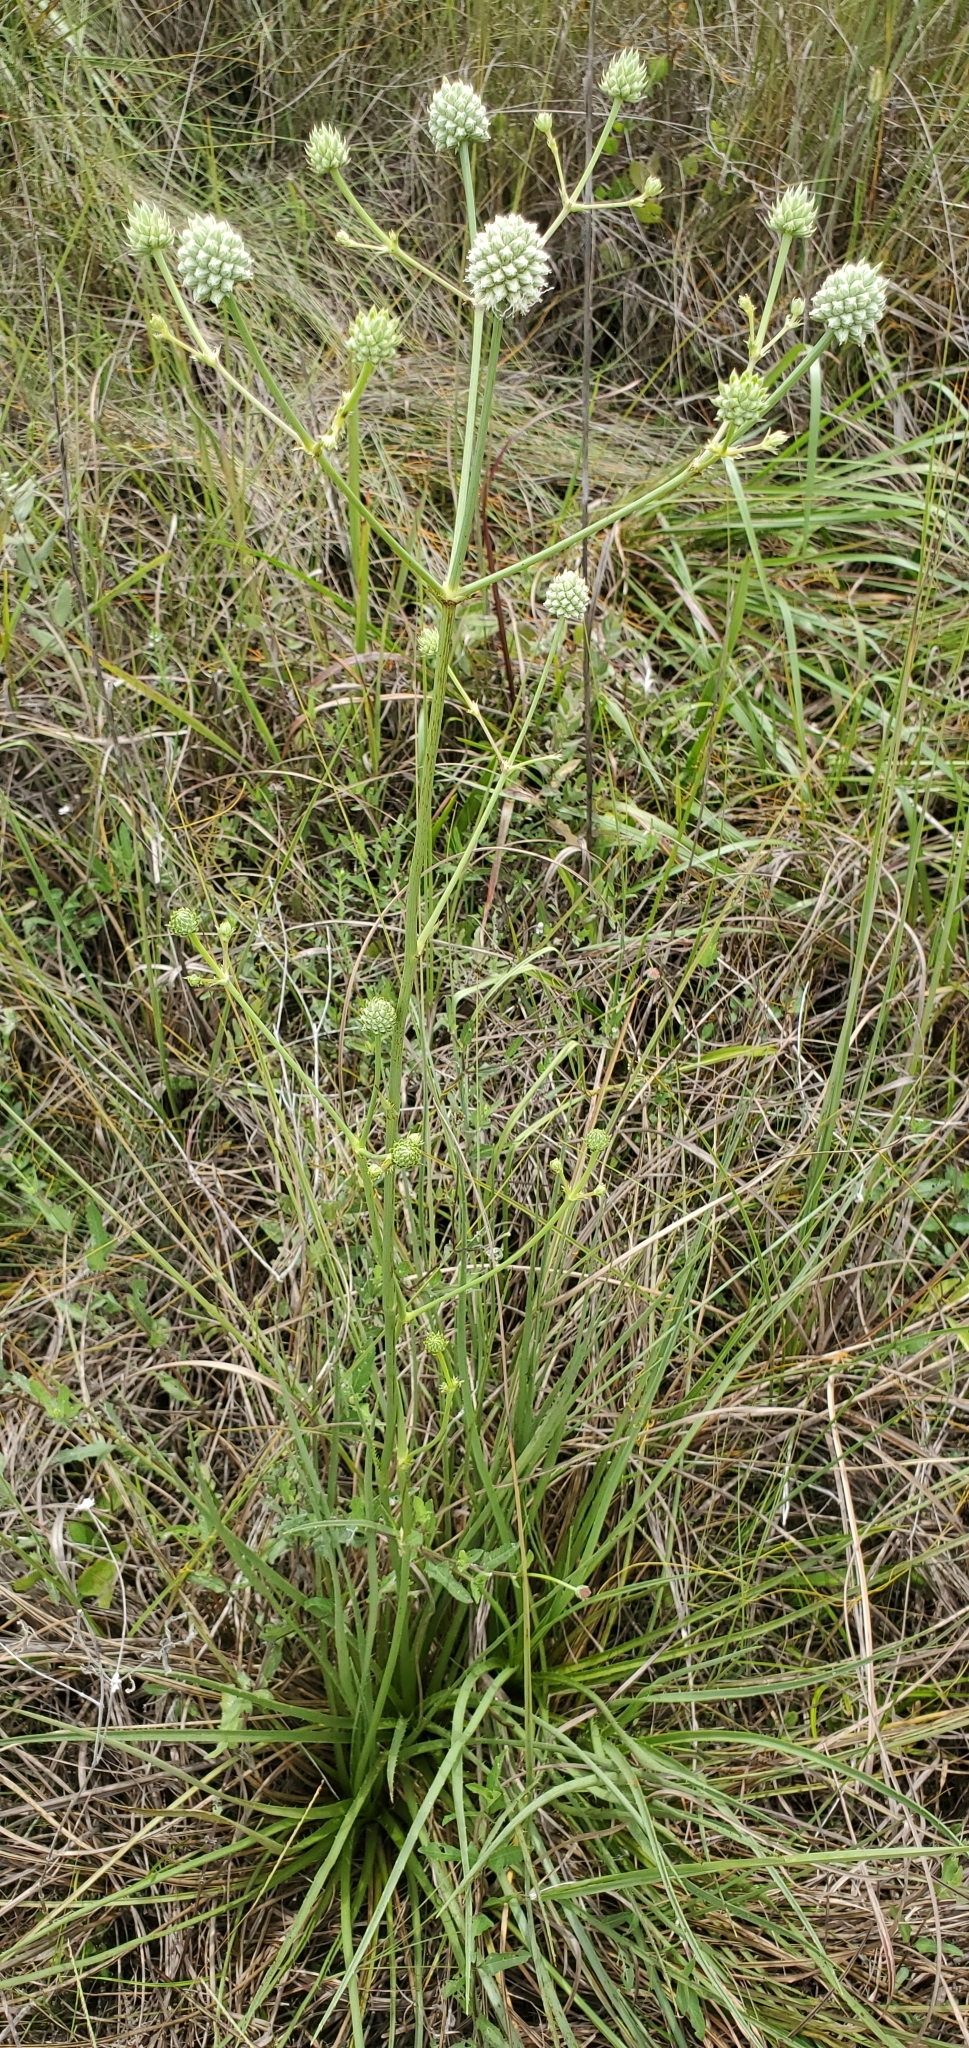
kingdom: Plantae
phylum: Tracheophyta
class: Magnoliopsida
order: Apiales
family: Apiaceae
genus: Eryngium
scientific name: Eryngium yuccifolium
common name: Button eryngo
